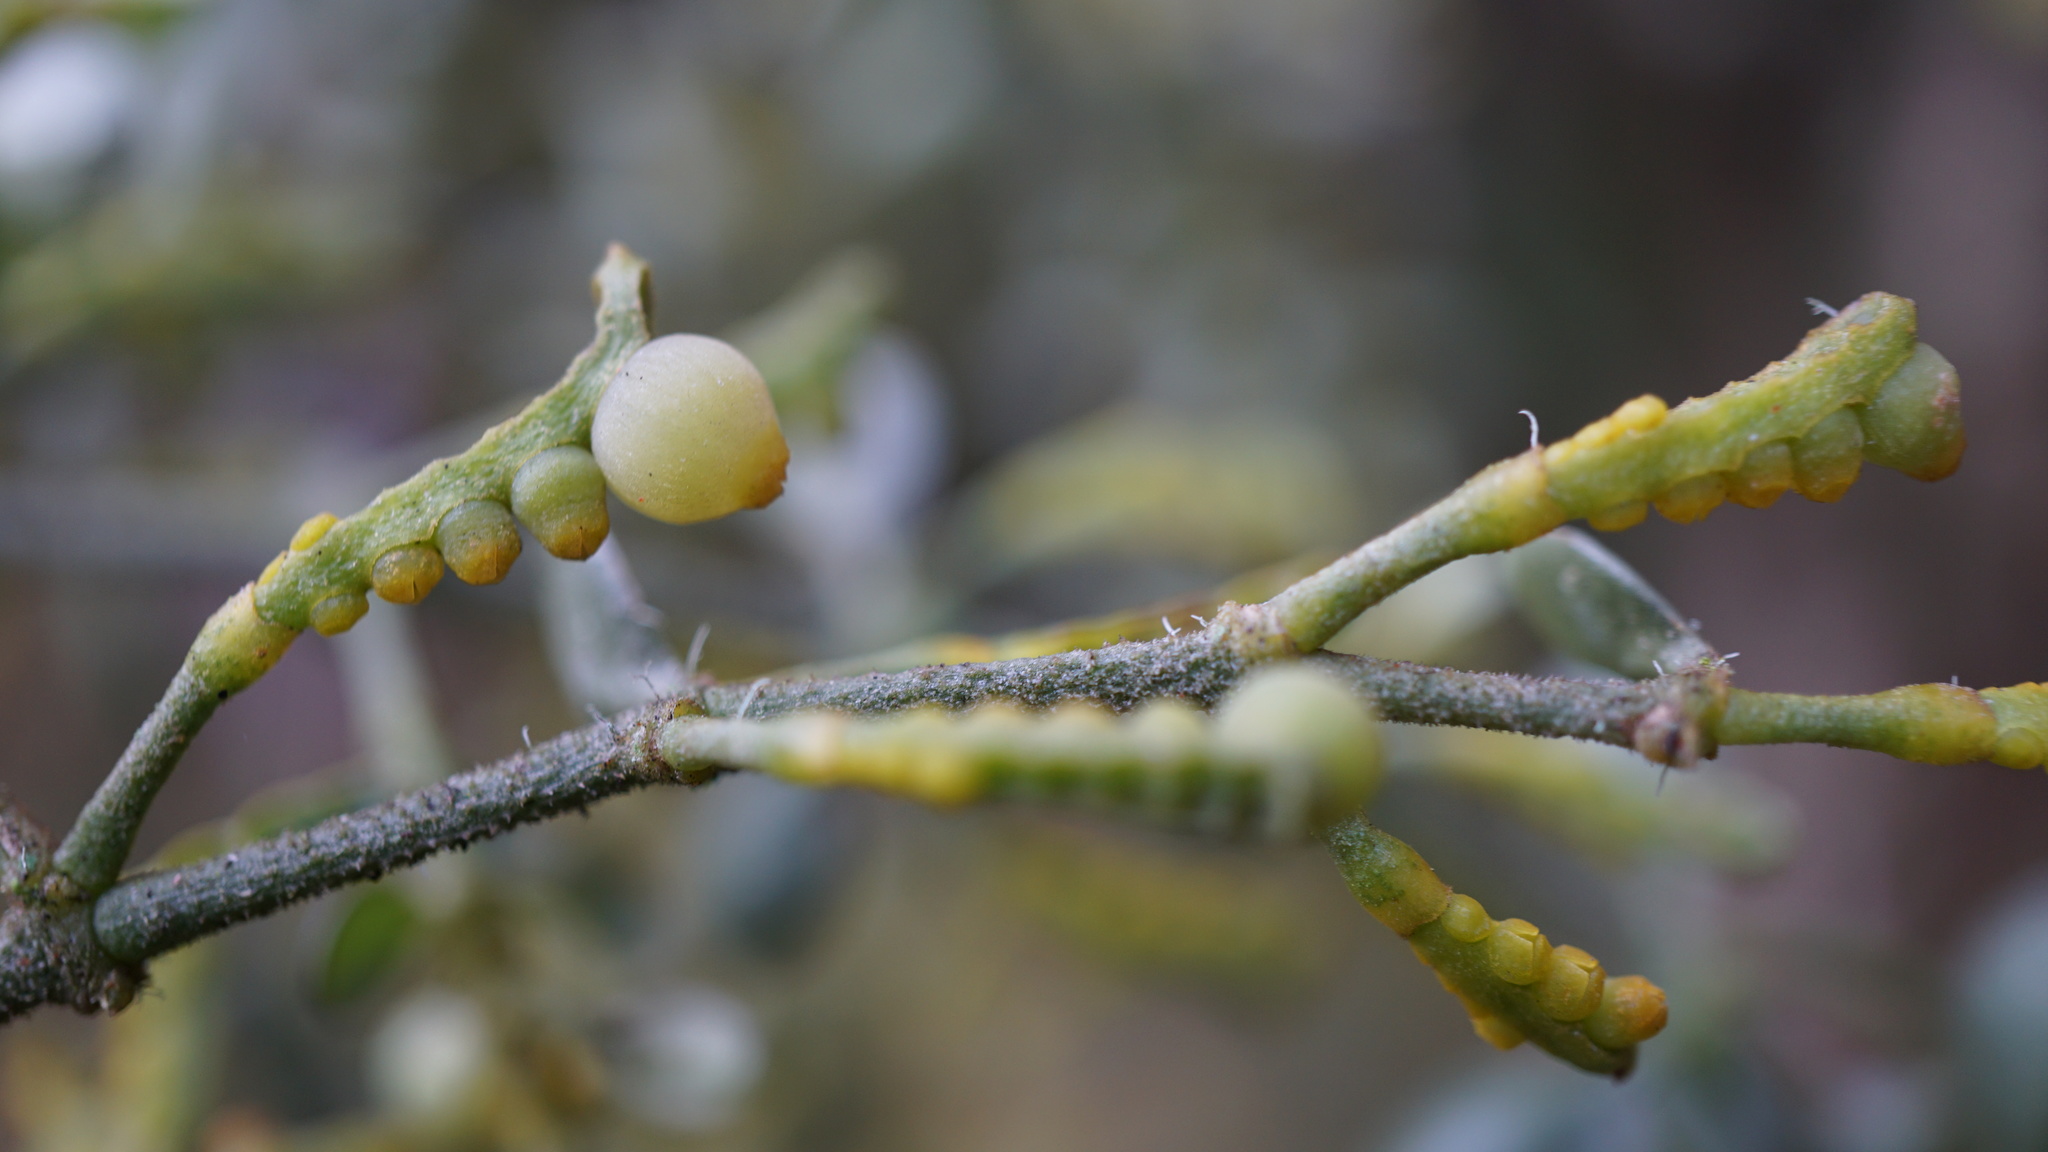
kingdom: Plantae
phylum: Tracheophyta
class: Magnoliopsida
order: Santalales
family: Viscaceae
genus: Dendrophthora
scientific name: Dendrophthora clavata
